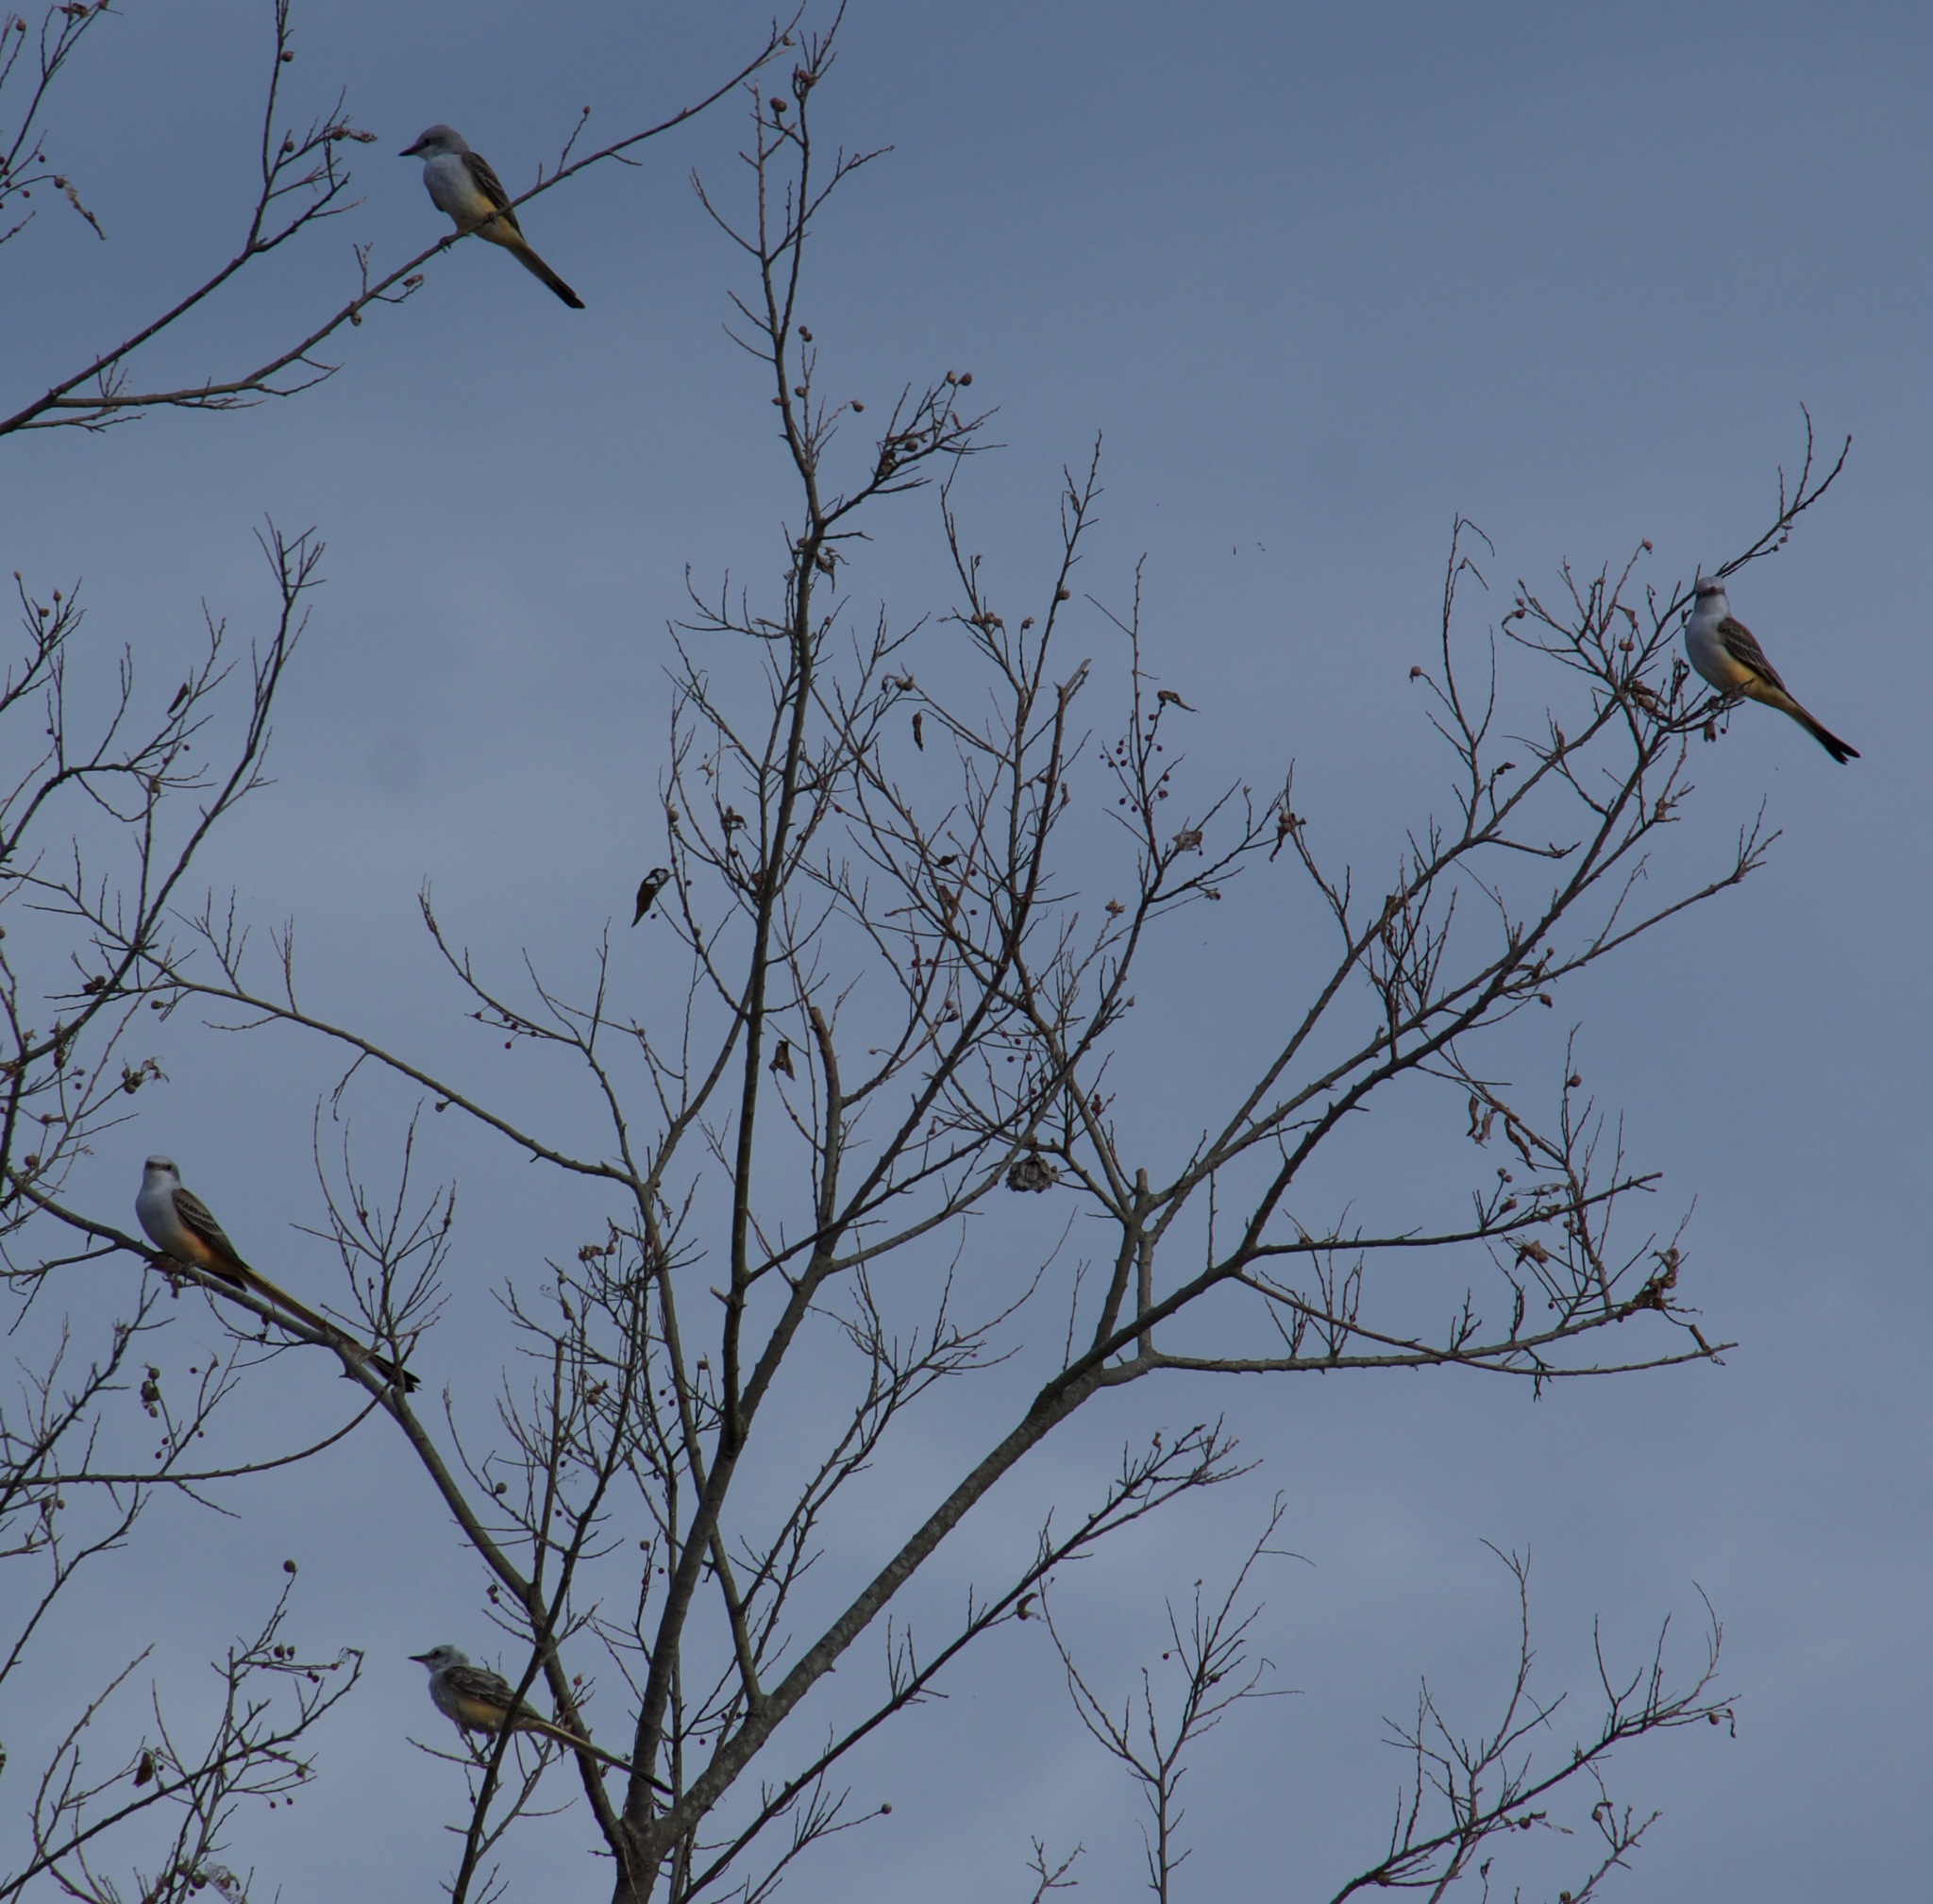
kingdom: Animalia
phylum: Chordata
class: Aves
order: Passeriformes
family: Tyrannidae
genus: Tyrannus
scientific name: Tyrannus forficatus
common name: Scissor-tailed flycatcher
